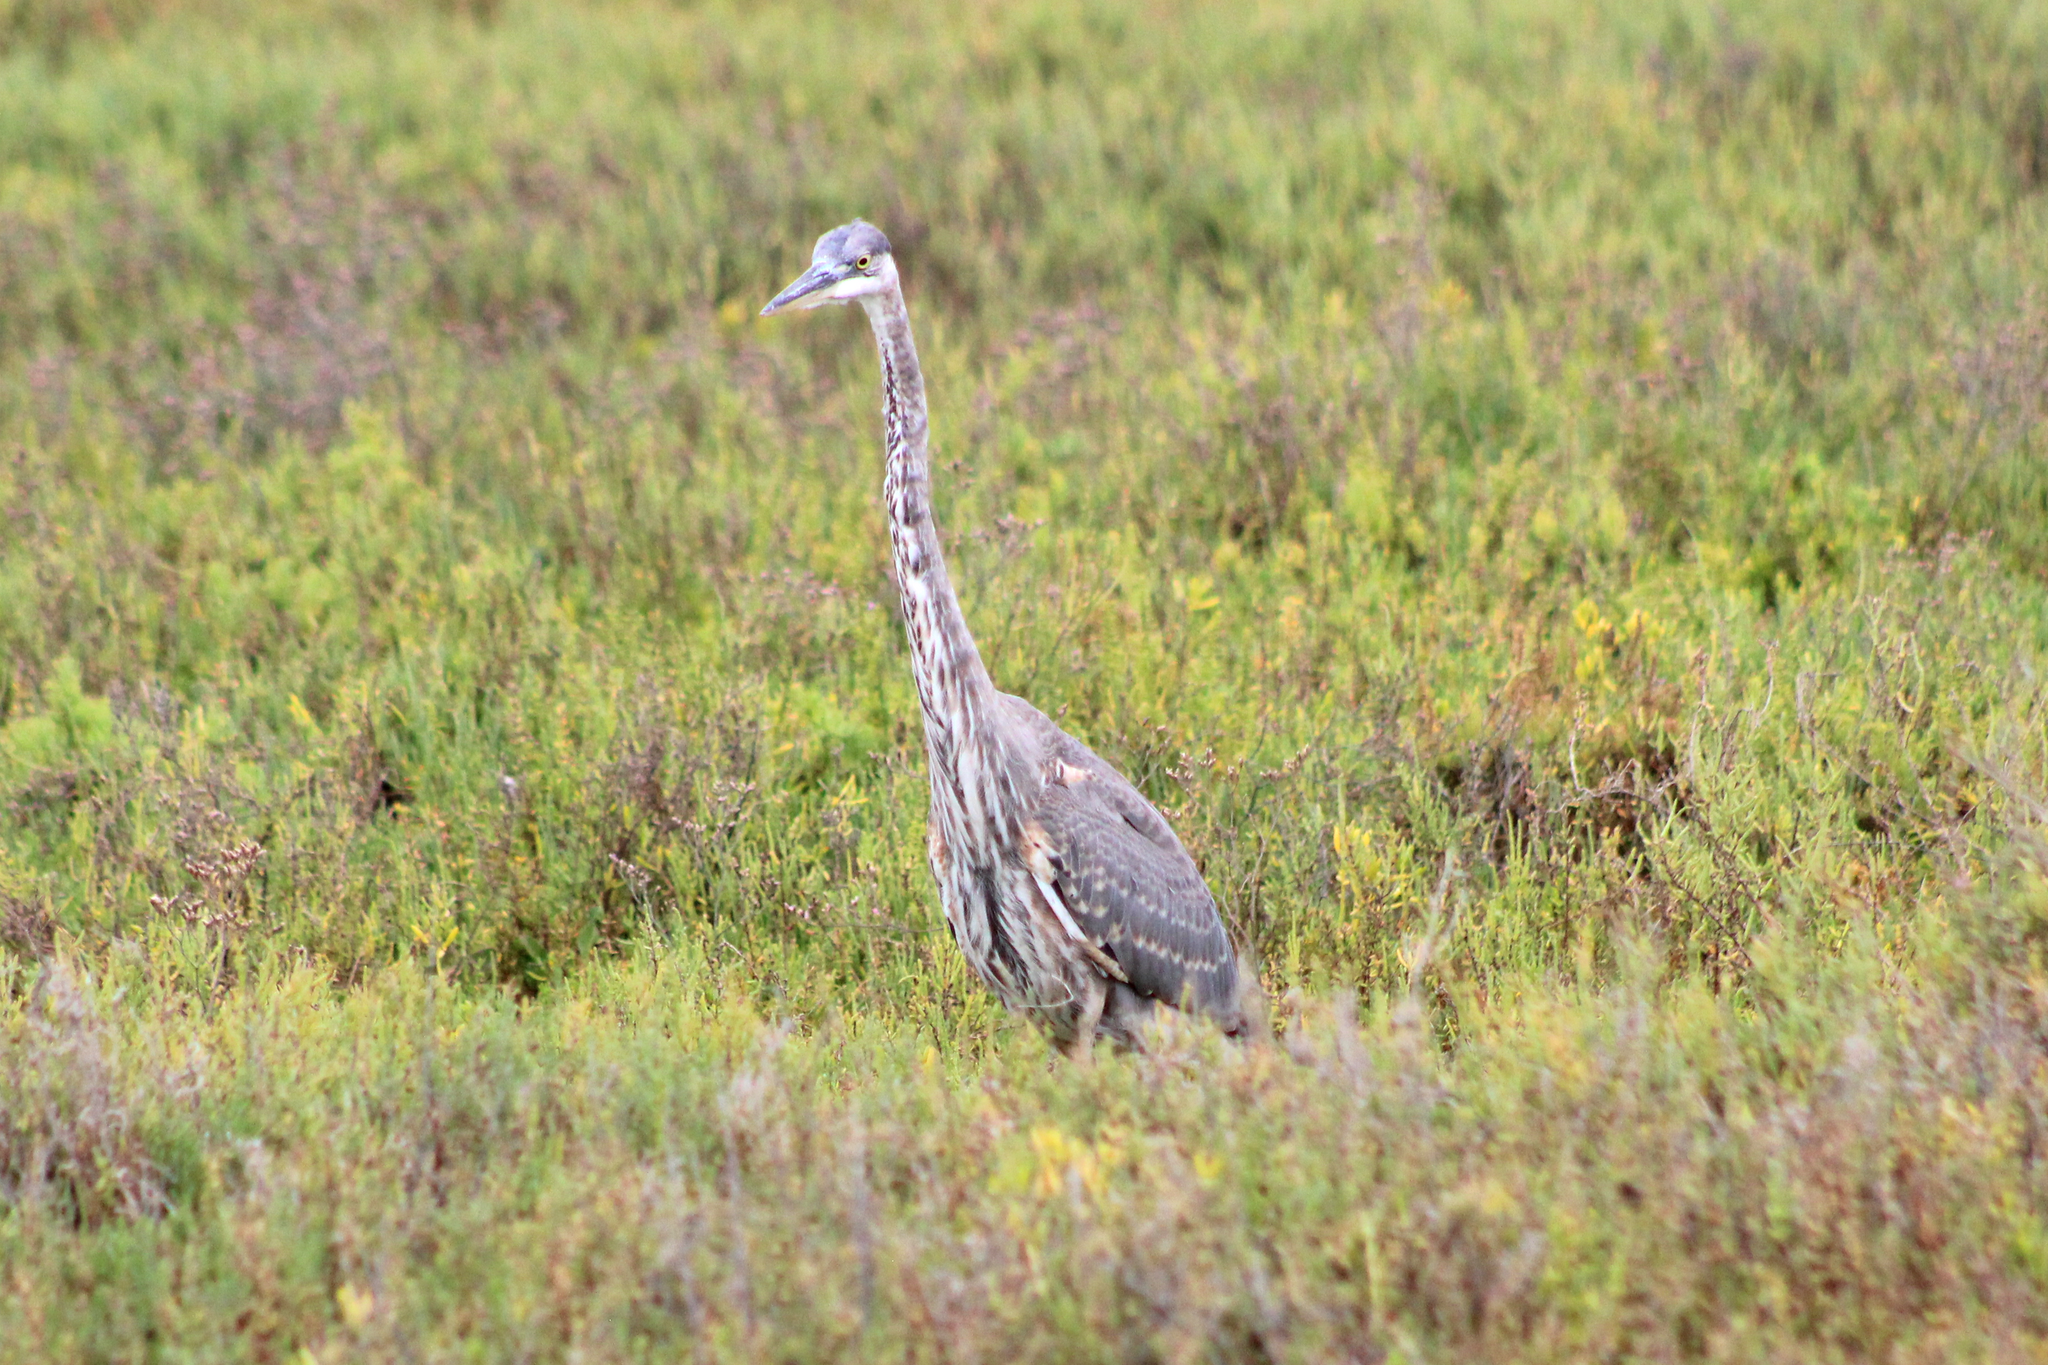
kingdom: Animalia
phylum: Chordata
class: Aves
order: Pelecaniformes
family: Ardeidae
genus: Ardea
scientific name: Ardea herodias
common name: Great blue heron
